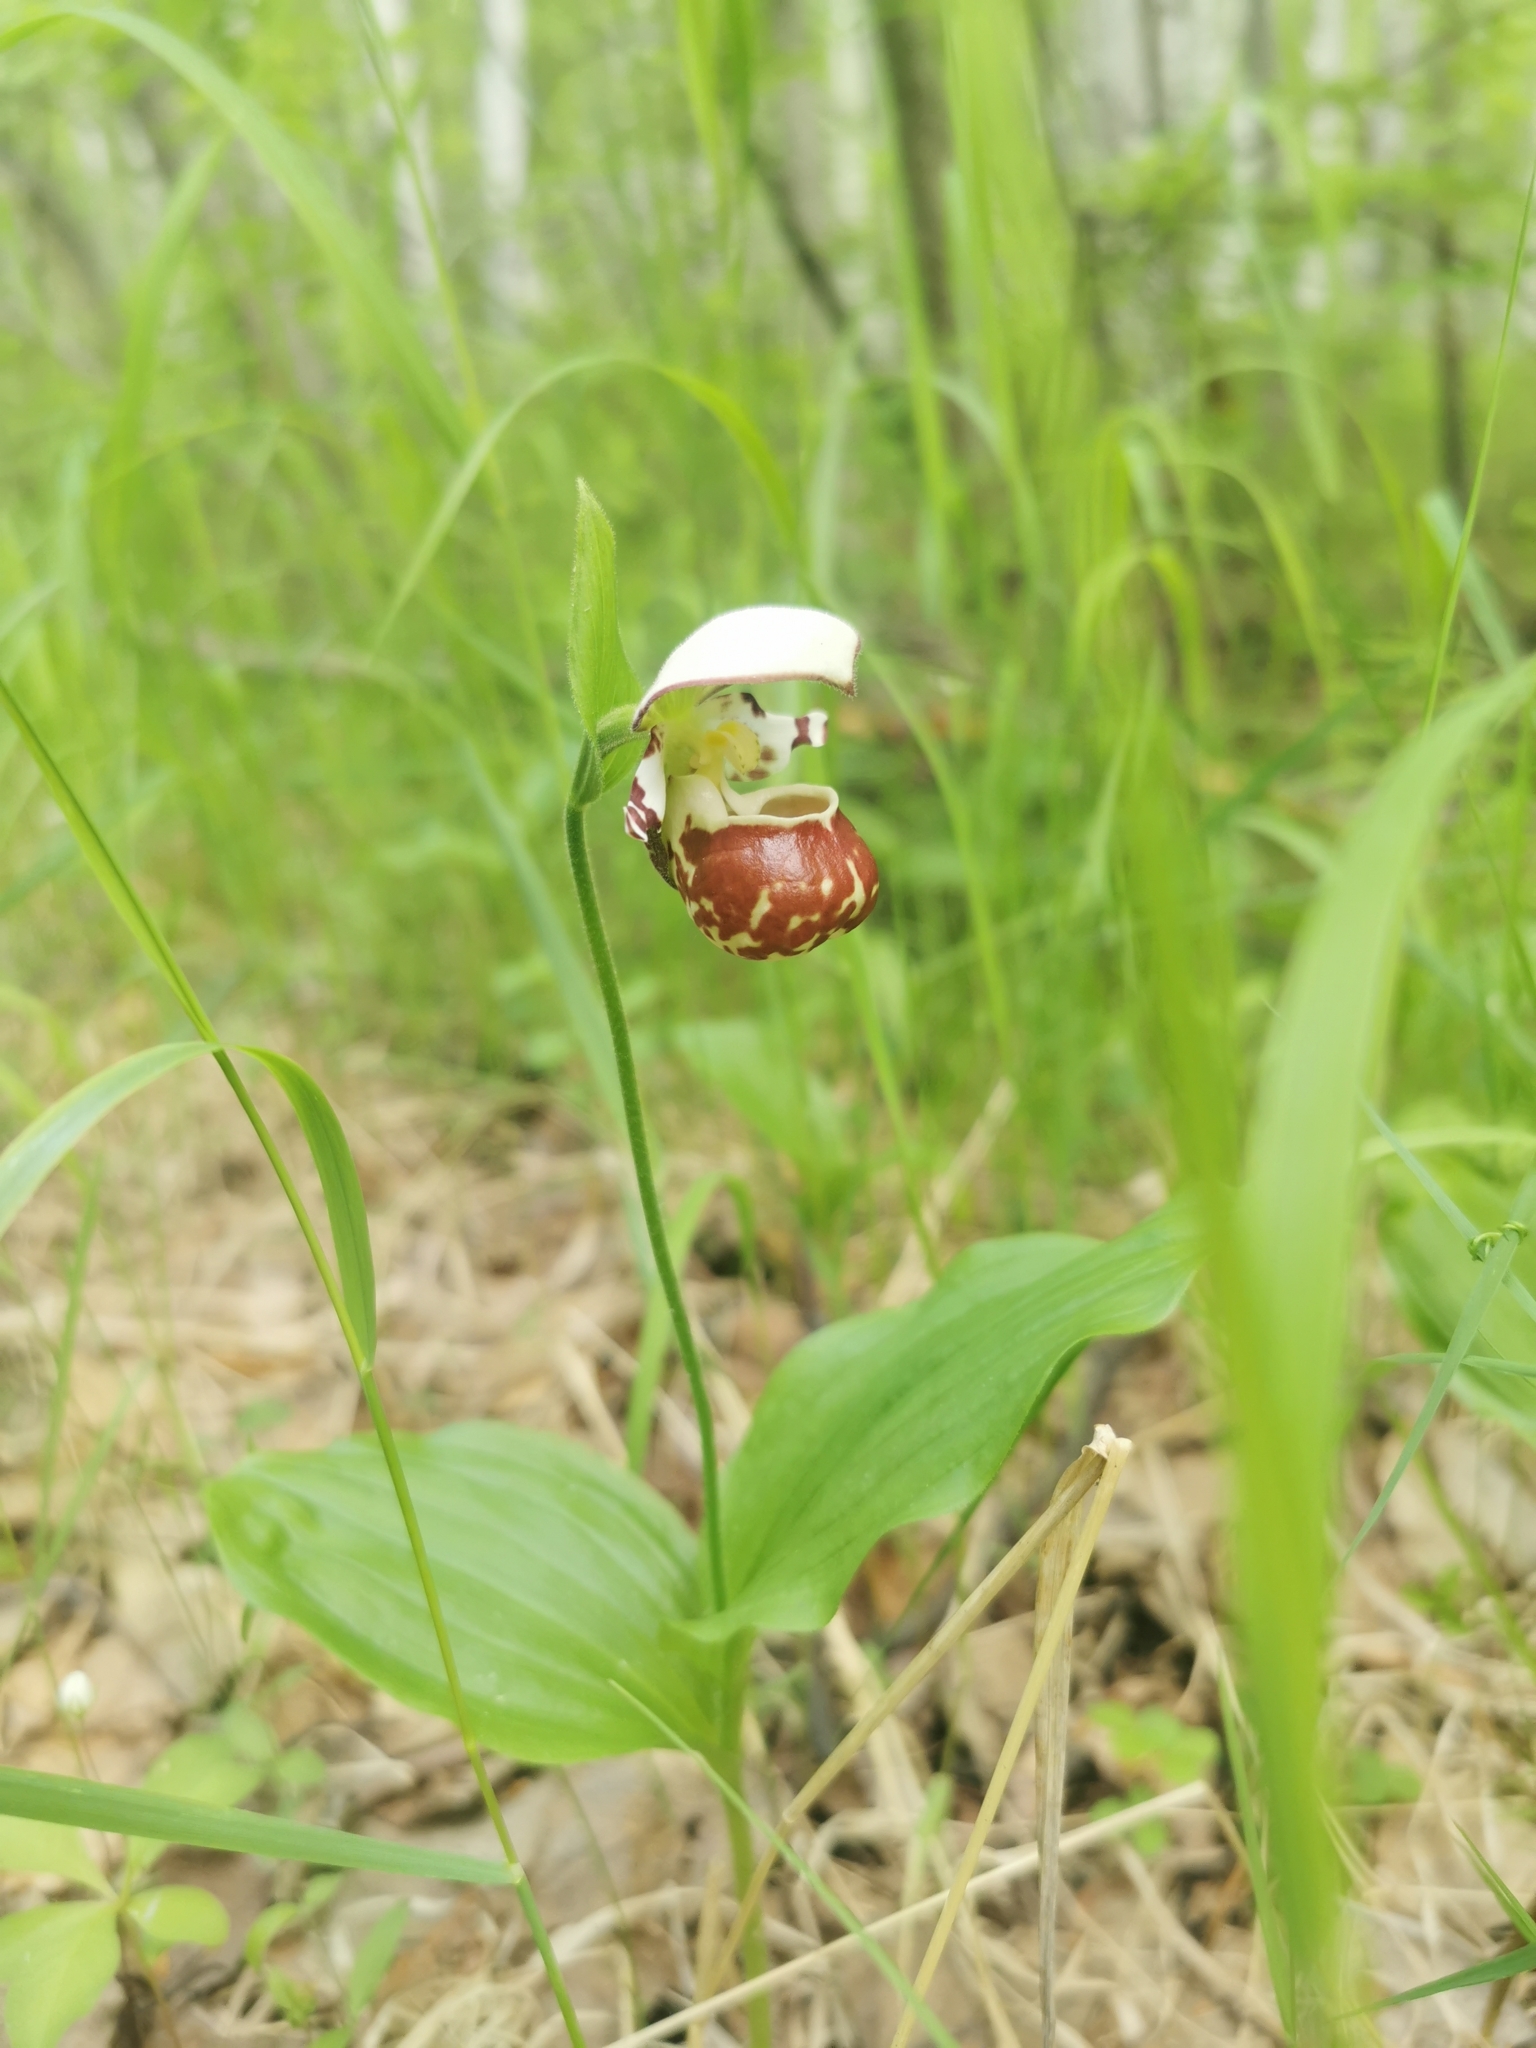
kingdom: Plantae
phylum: Tracheophyta
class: Liliopsida
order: Asparagales
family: Orchidaceae
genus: Cypripedium
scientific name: Cypripedium yatabeanum
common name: Spotted lady's slipper
